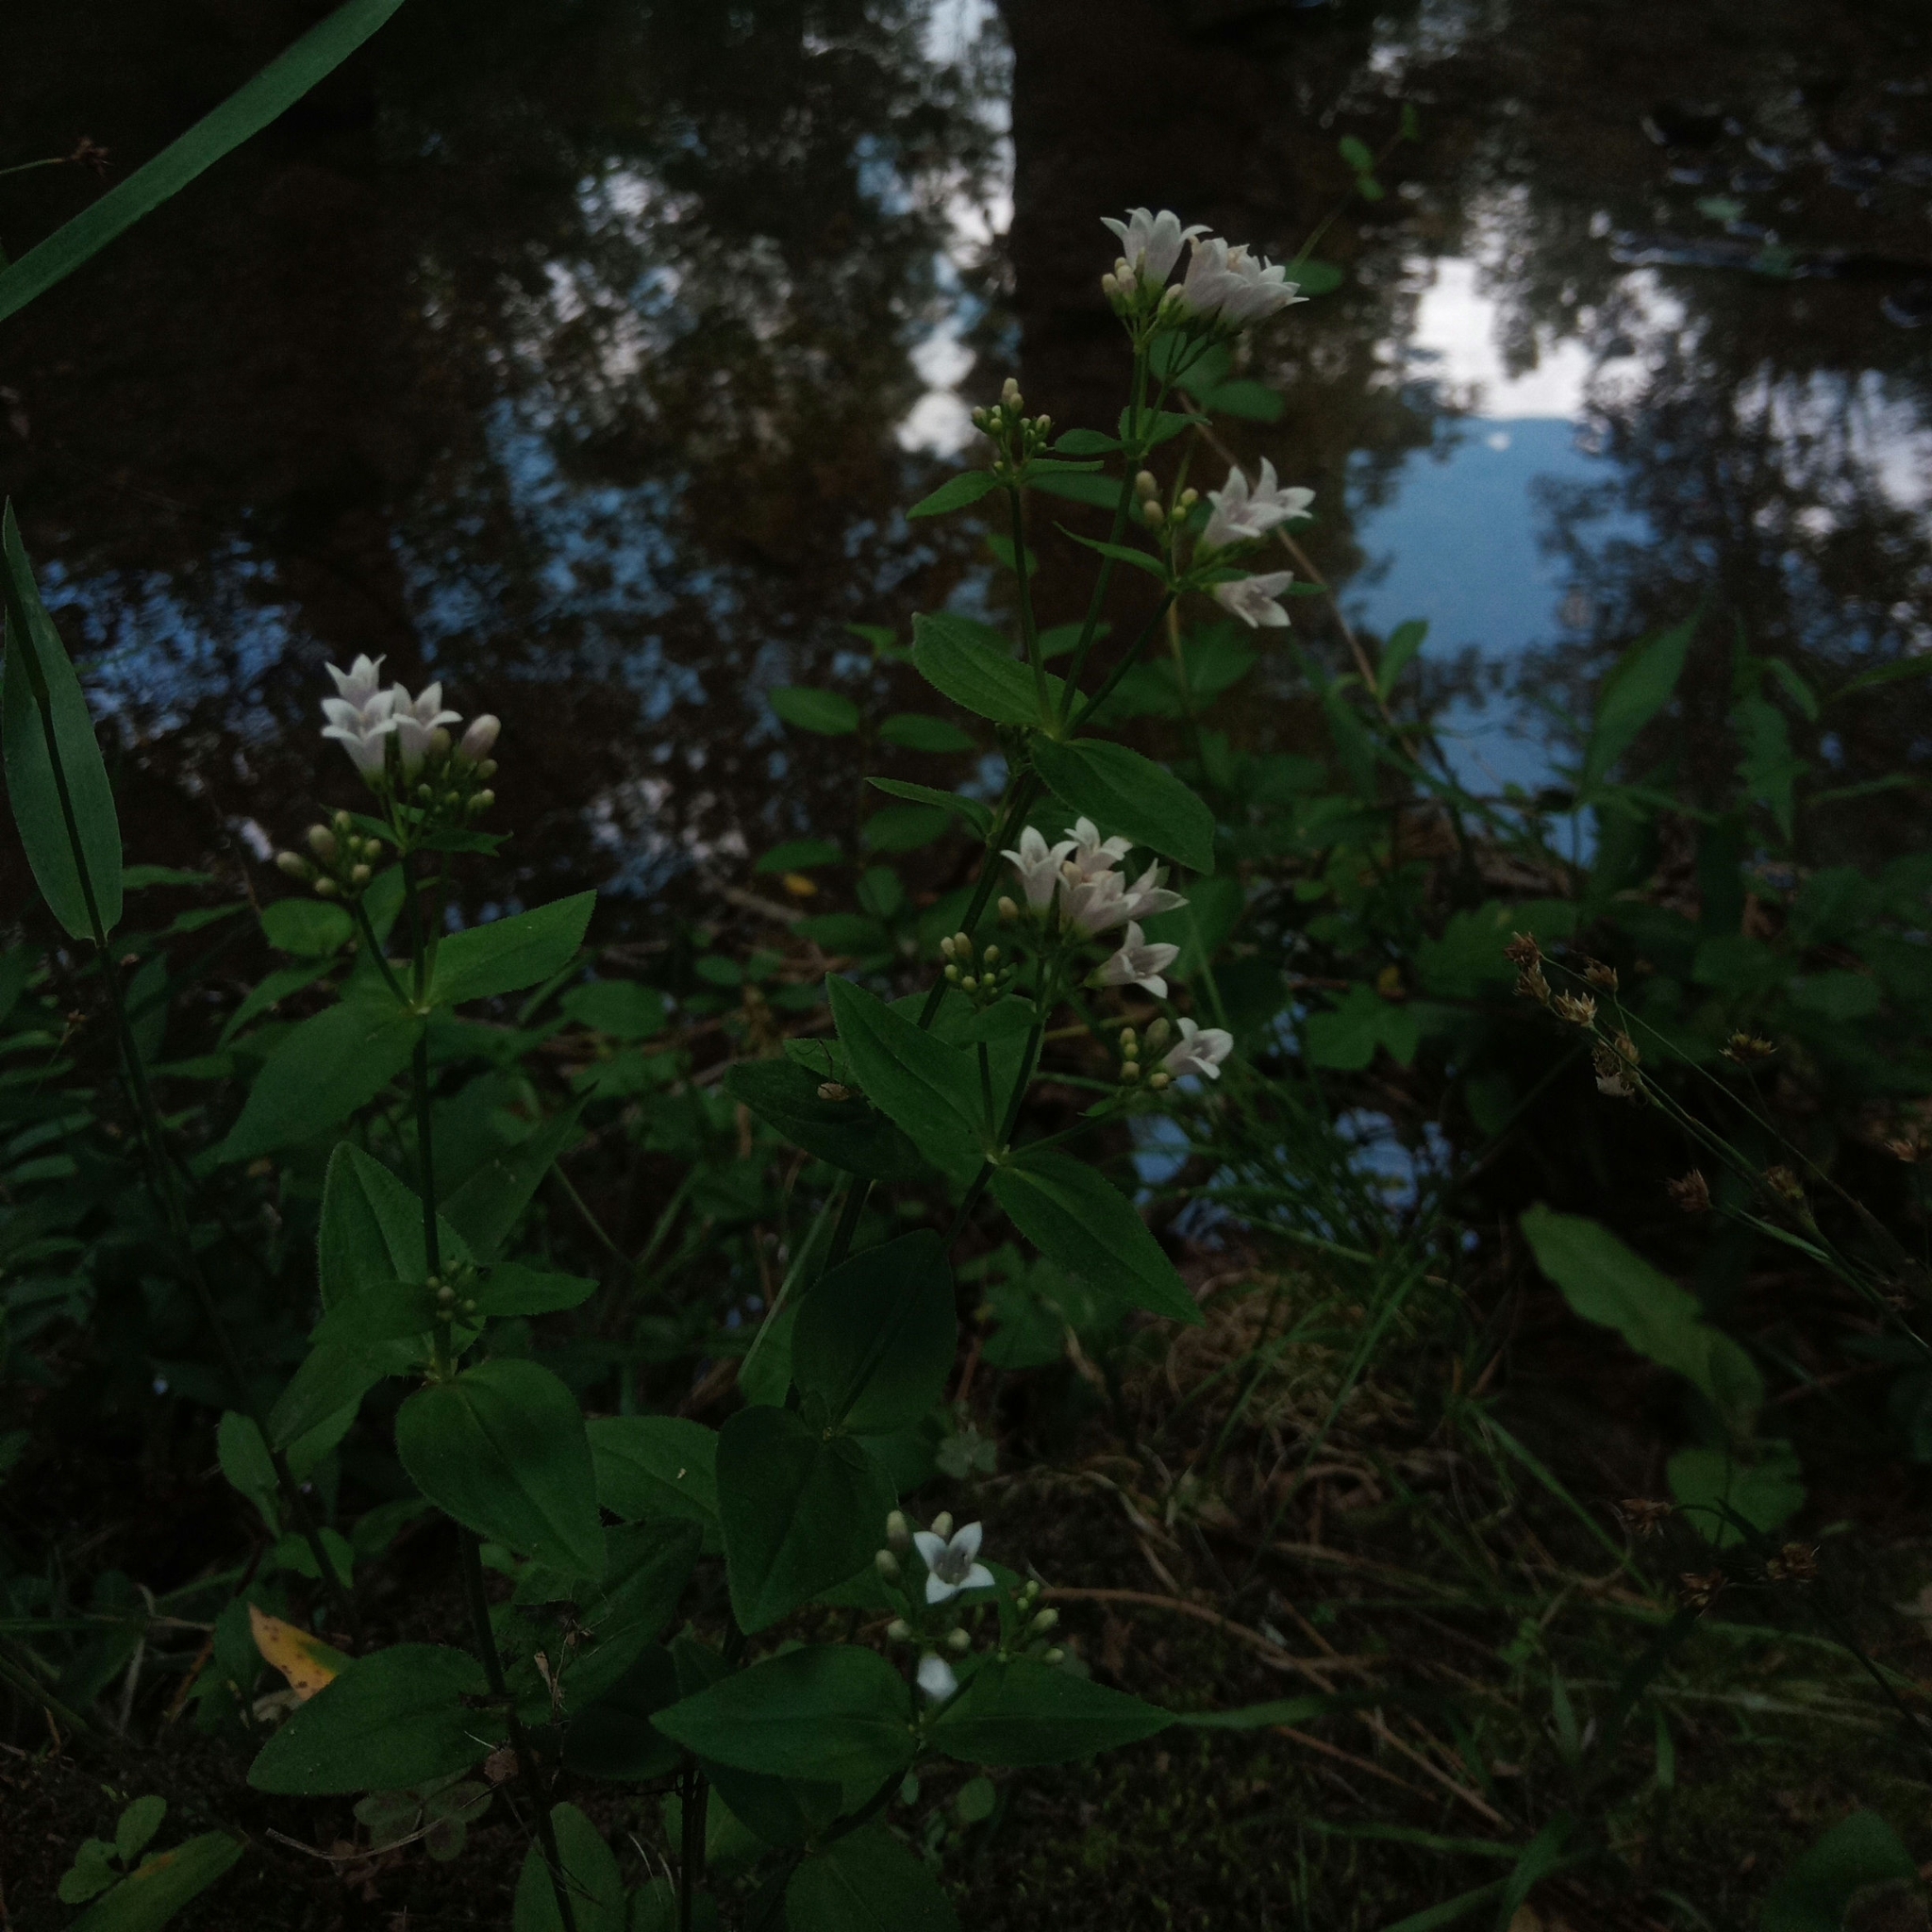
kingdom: Plantae
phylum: Tracheophyta
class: Magnoliopsida
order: Gentianales
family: Rubiaceae
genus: Houstonia
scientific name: Houstonia purpurea
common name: Summer bluet
